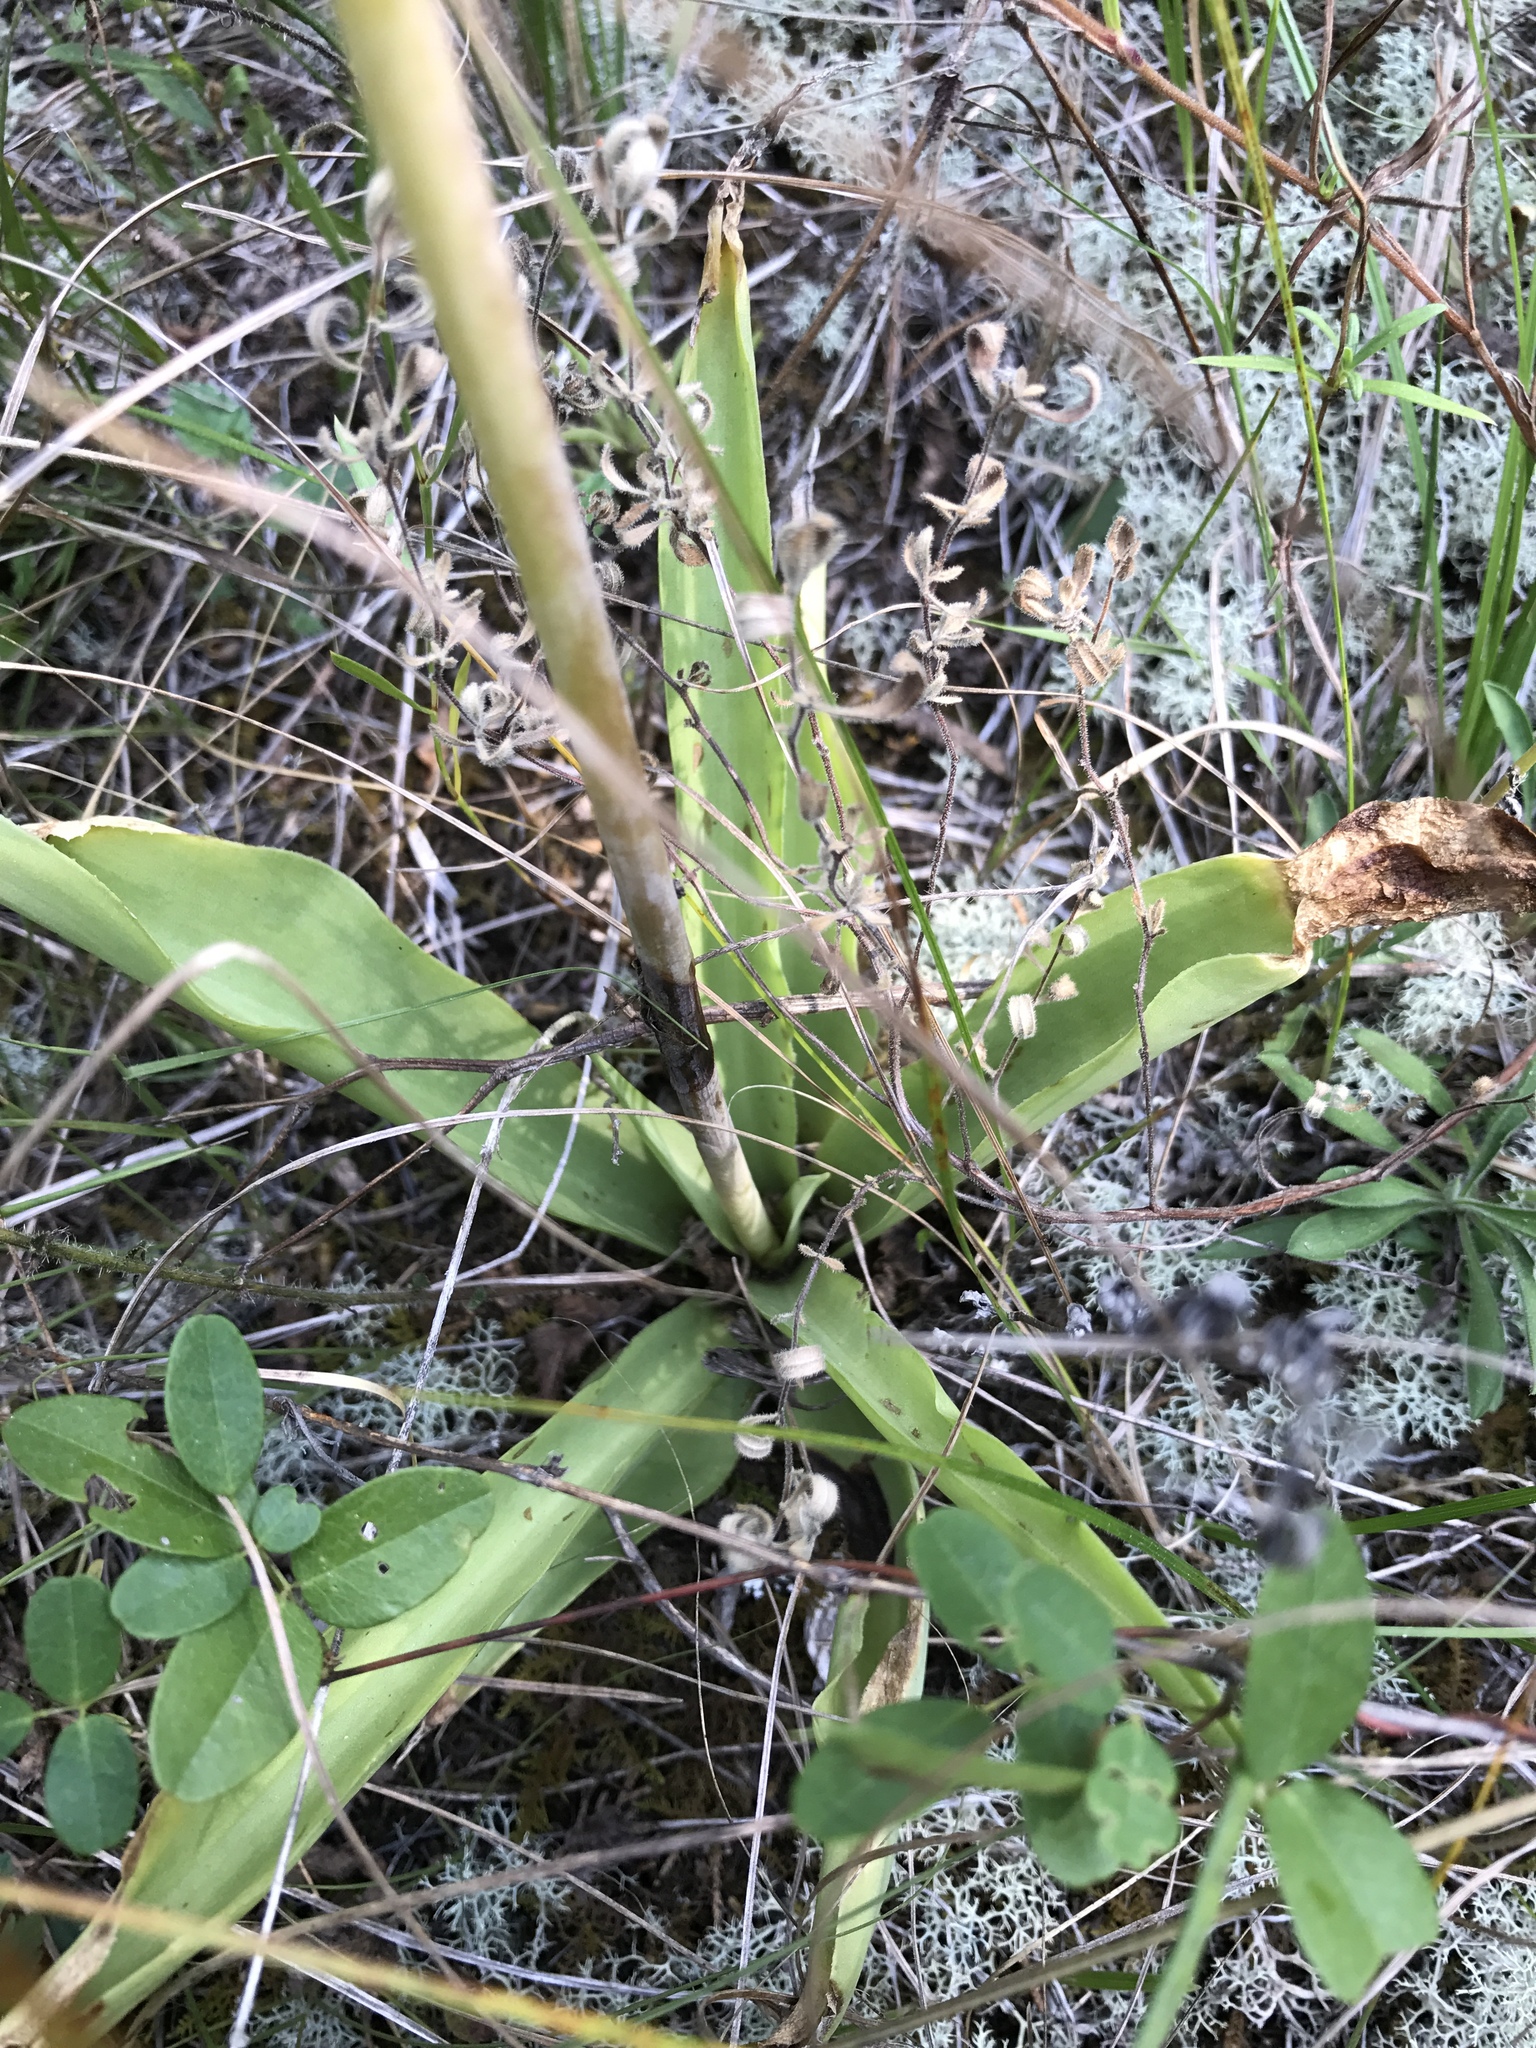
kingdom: Plantae
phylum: Tracheophyta
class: Liliopsida
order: Asparagales
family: Asparagaceae
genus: Agave
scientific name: Agave virginica
